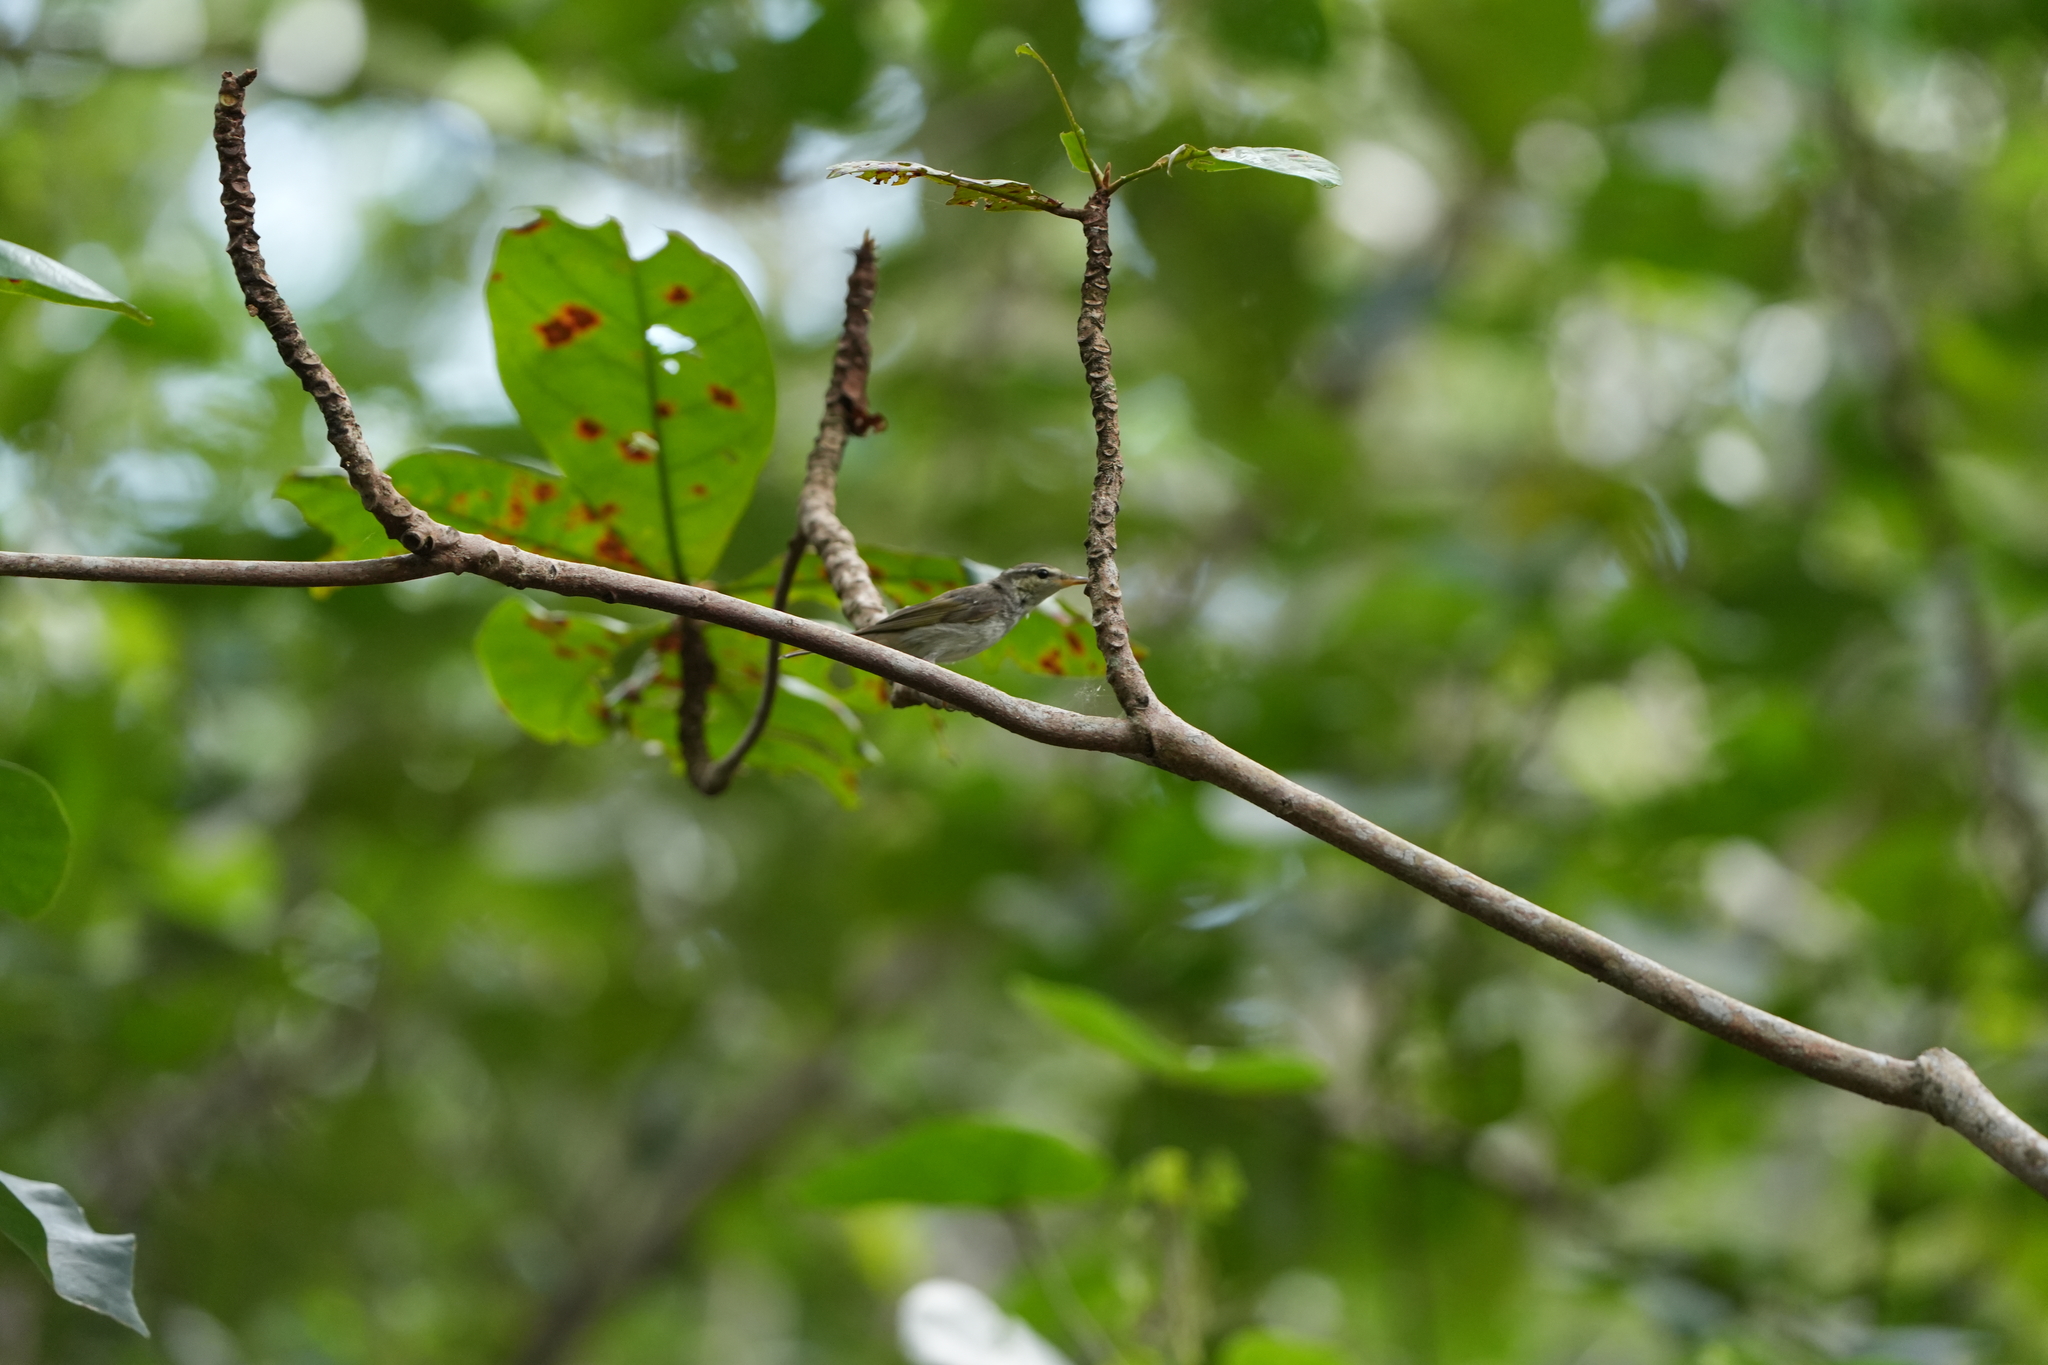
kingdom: Animalia
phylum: Chordata
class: Aves
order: Passeriformes
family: Phylloscopidae
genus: Phylloscopus
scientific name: Phylloscopus borealis
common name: Arctic warbler
